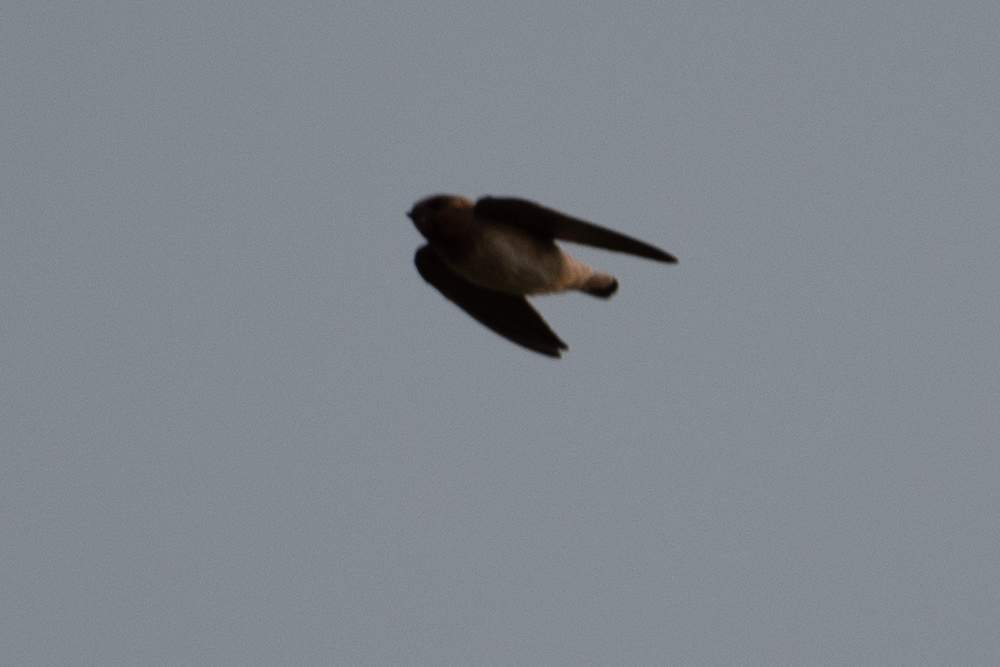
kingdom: Animalia
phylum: Chordata
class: Aves
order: Passeriformes
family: Hirundinidae
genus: Petrochelidon
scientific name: Petrochelidon pyrrhonota
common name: American cliff swallow
